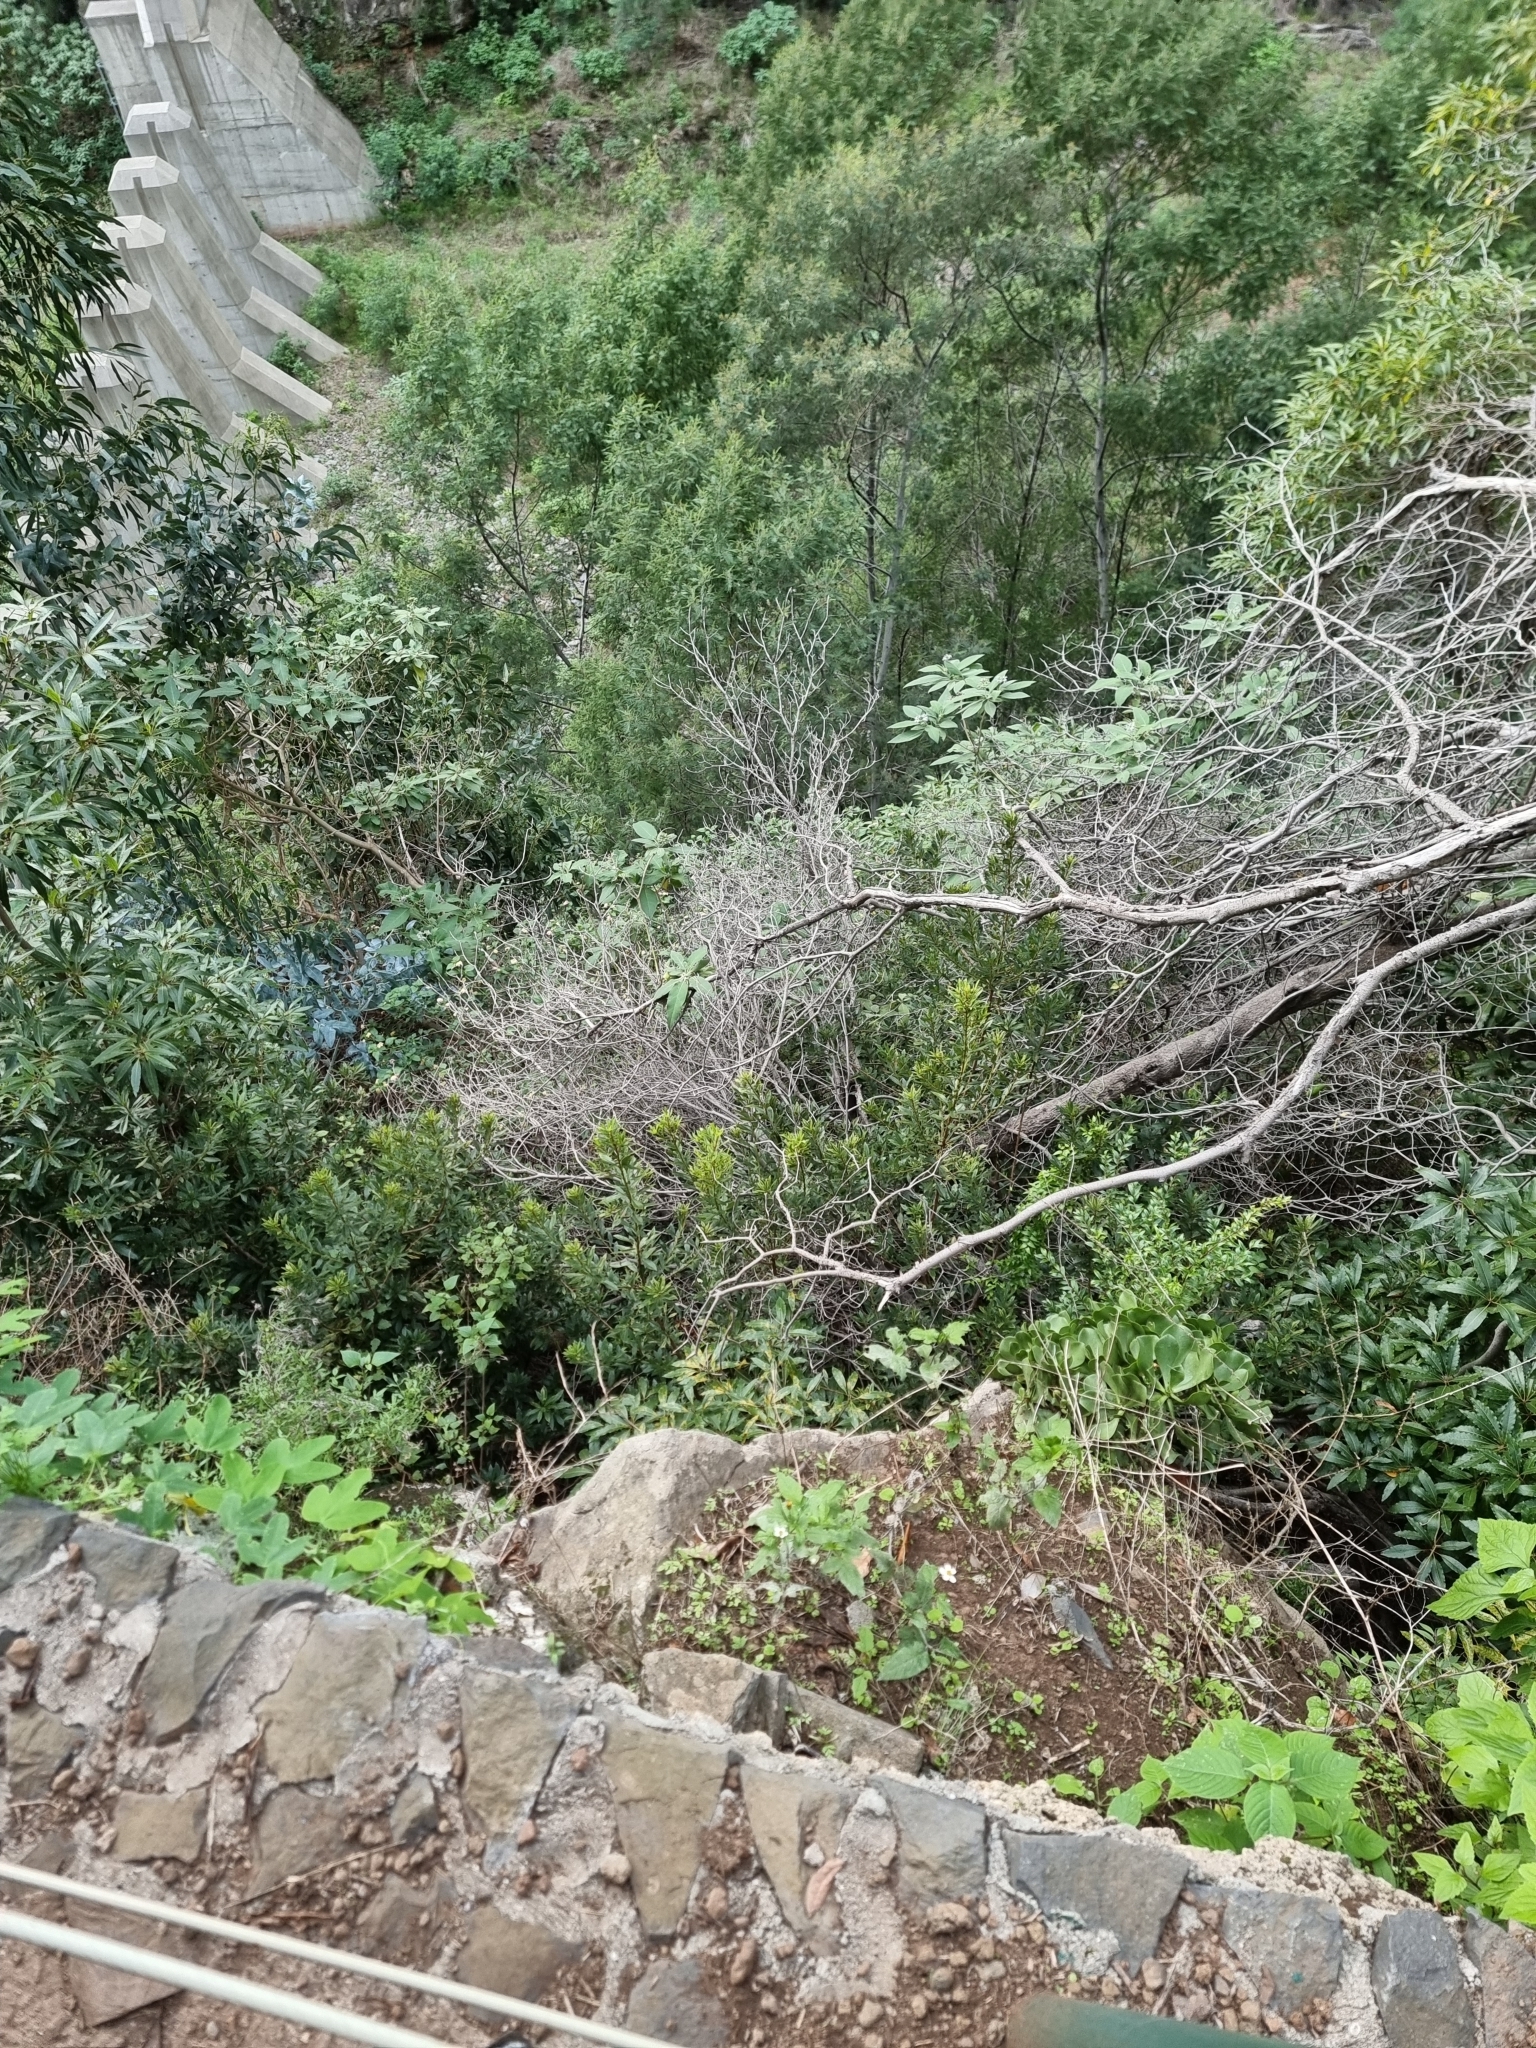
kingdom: Plantae
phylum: Tracheophyta
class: Magnoliopsida
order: Fagales
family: Myricaceae
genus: Morella
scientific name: Morella faya
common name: Firetree
